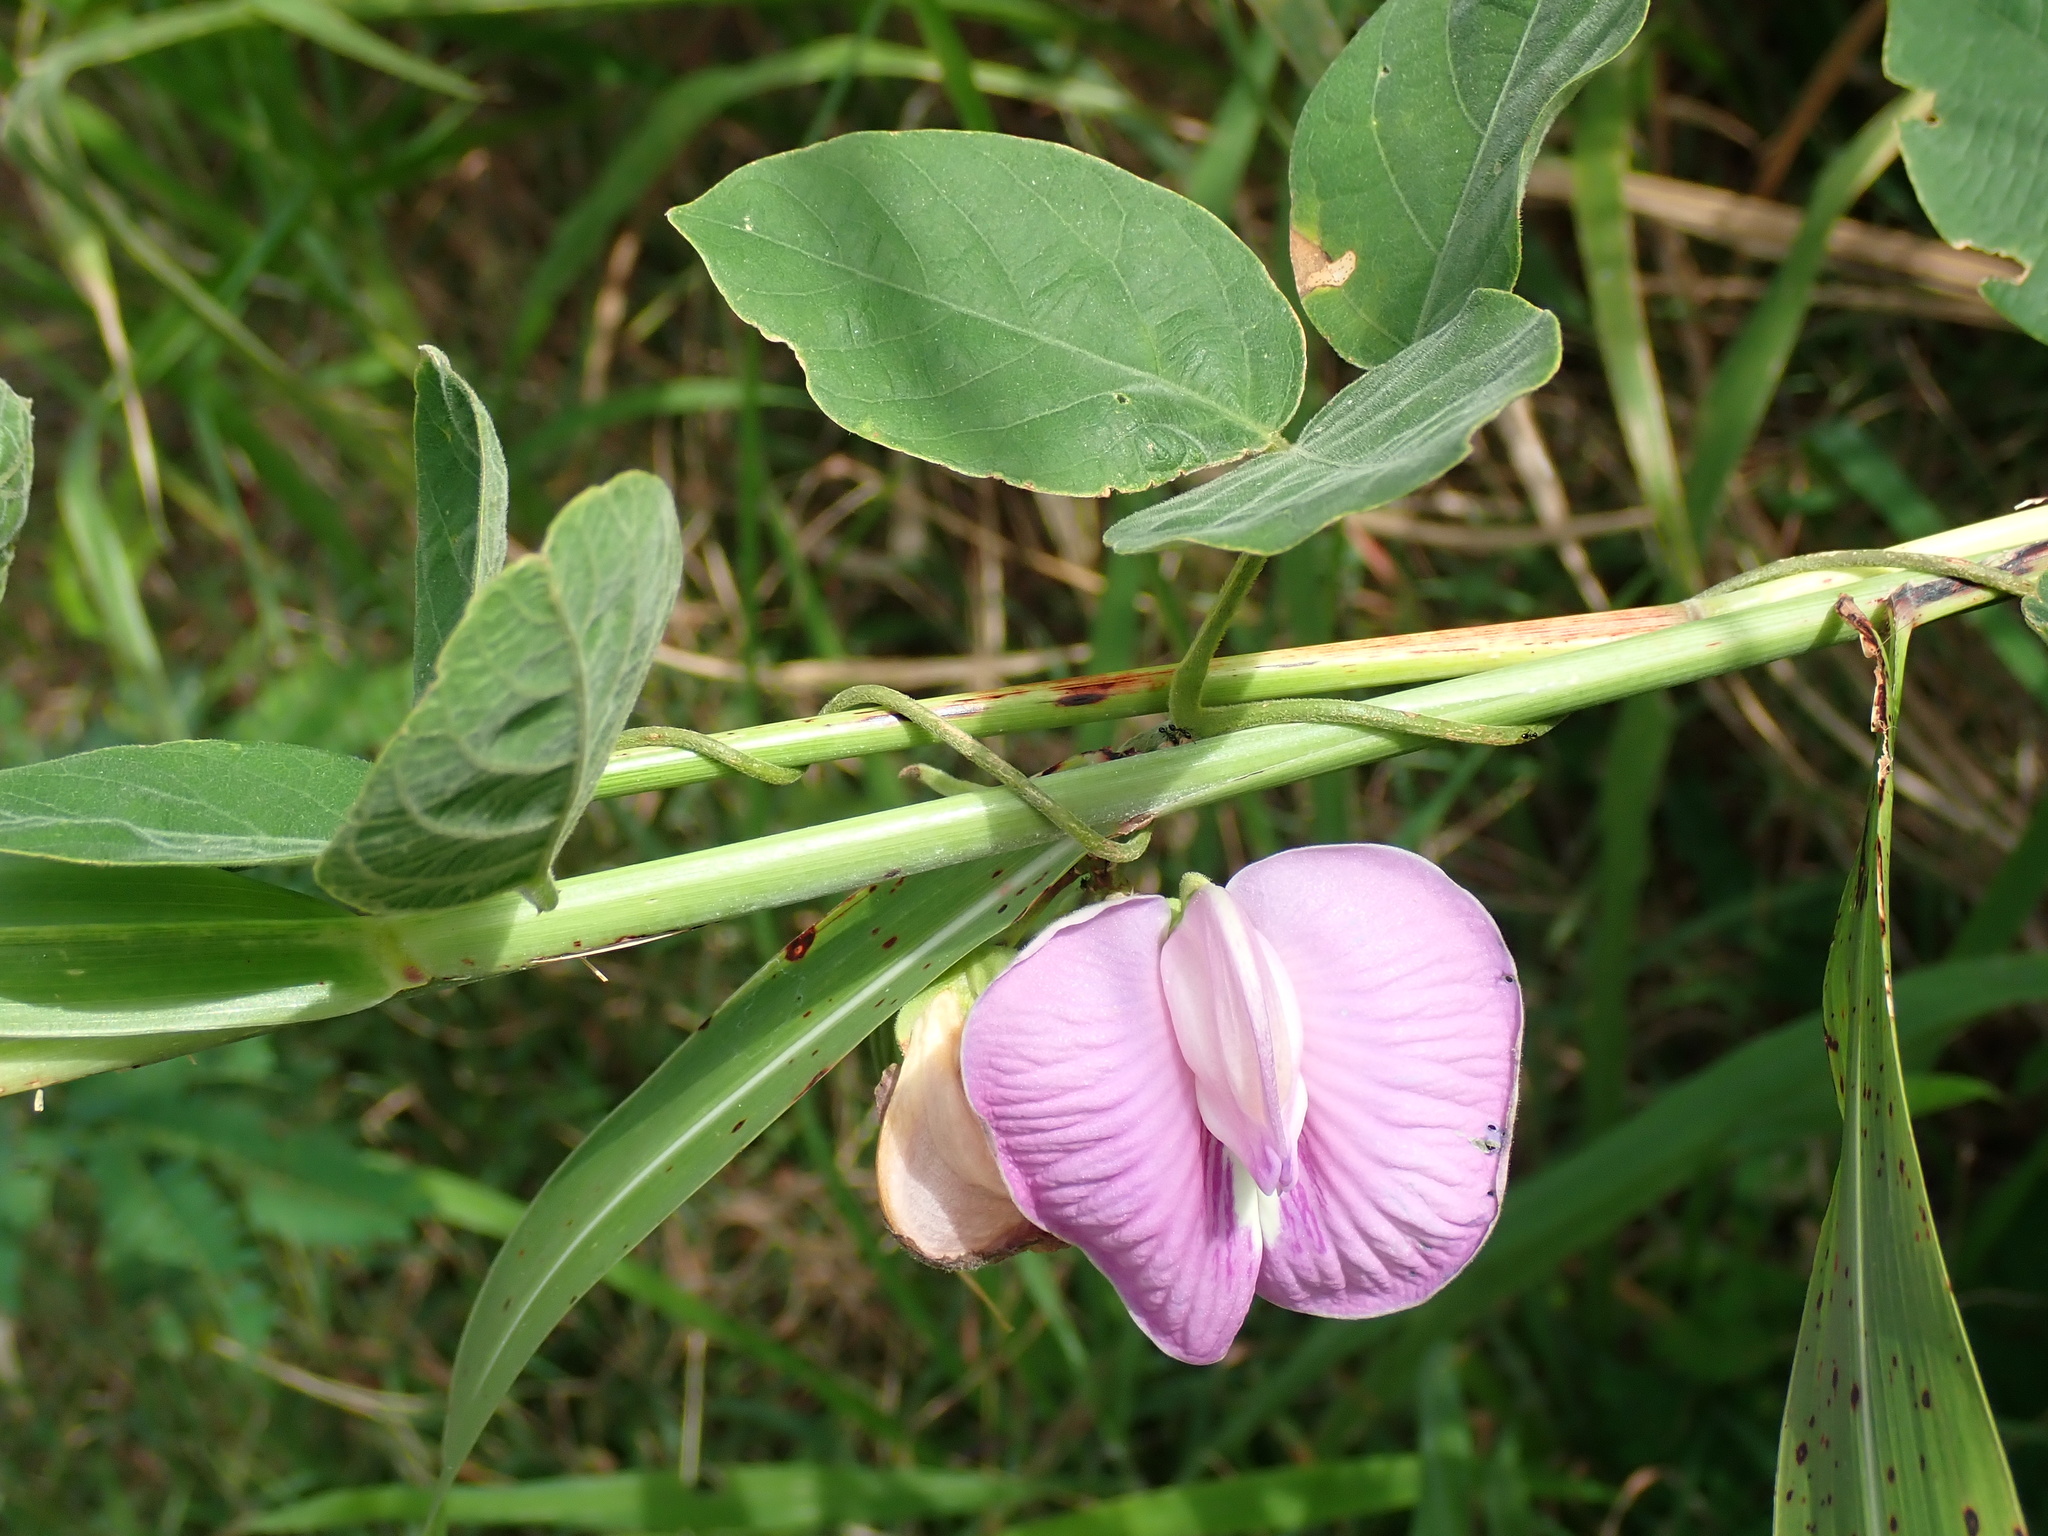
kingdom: Plantae
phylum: Tracheophyta
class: Magnoliopsida
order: Fabales
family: Fabaceae
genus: Centrosema
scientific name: Centrosema virginianum
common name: Butterfly-pea
